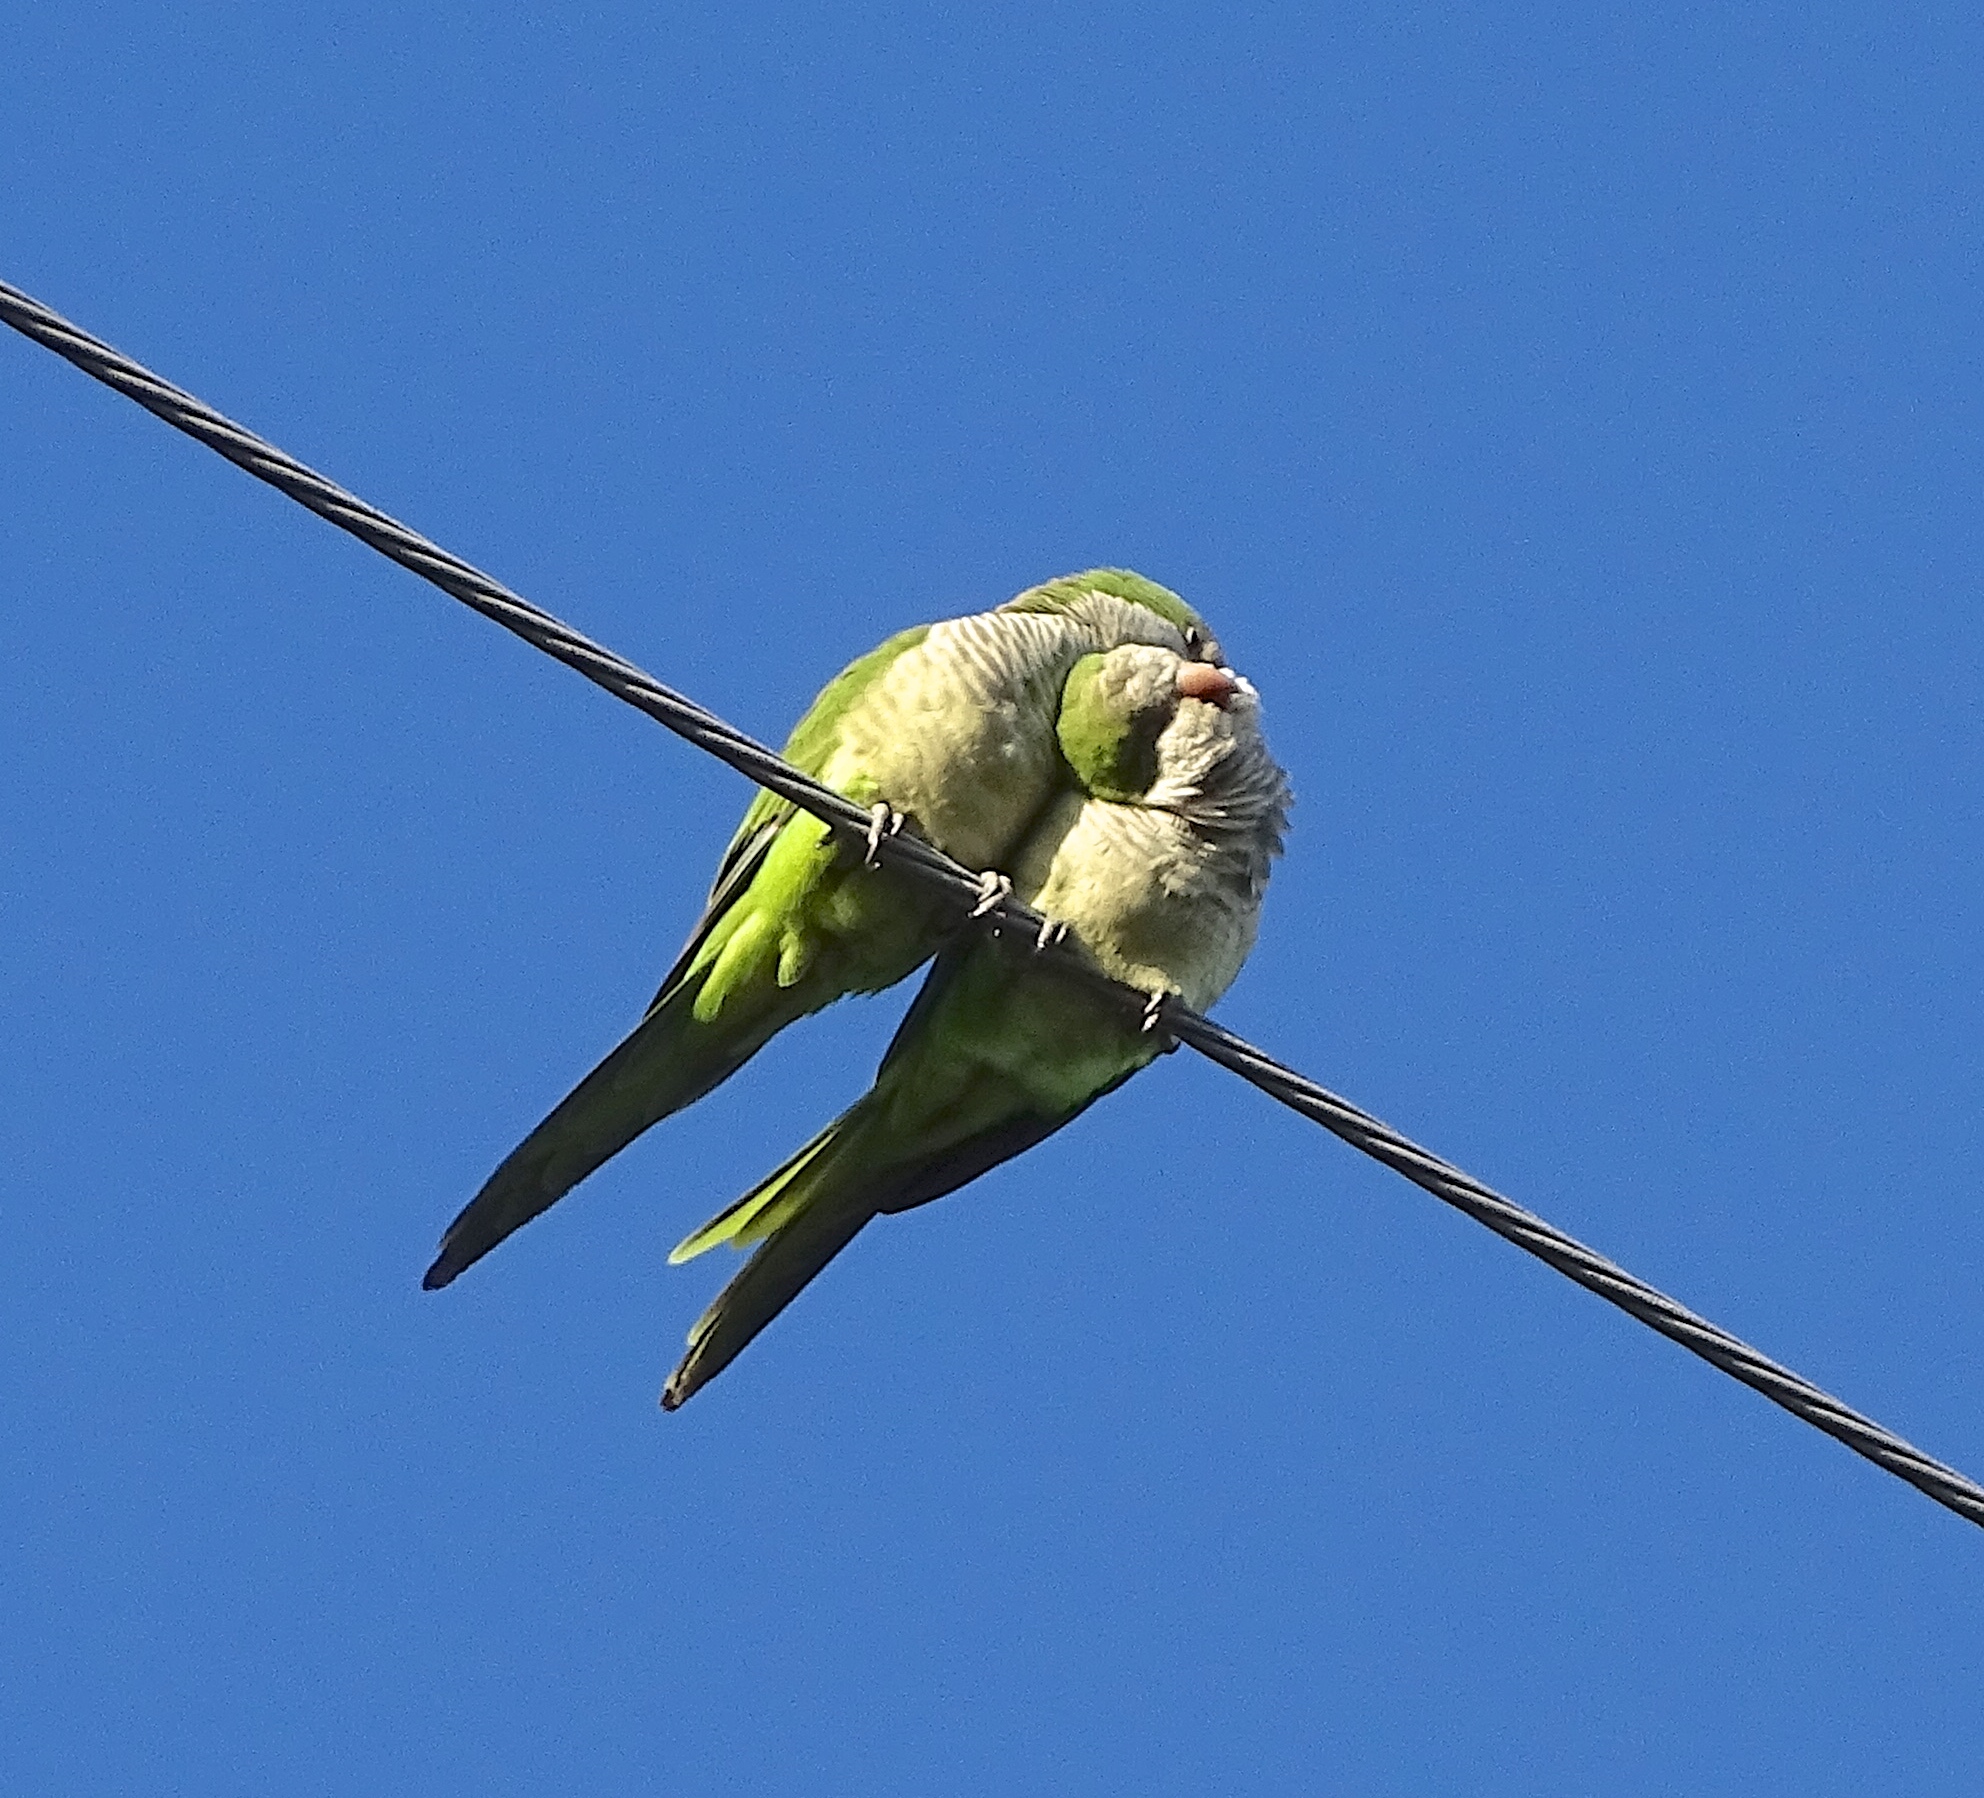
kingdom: Animalia
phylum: Chordata
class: Aves
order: Psittaciformes
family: Psittacidae
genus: Myiopsitta
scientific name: Myiopsitta monachus
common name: Monk parakeet
